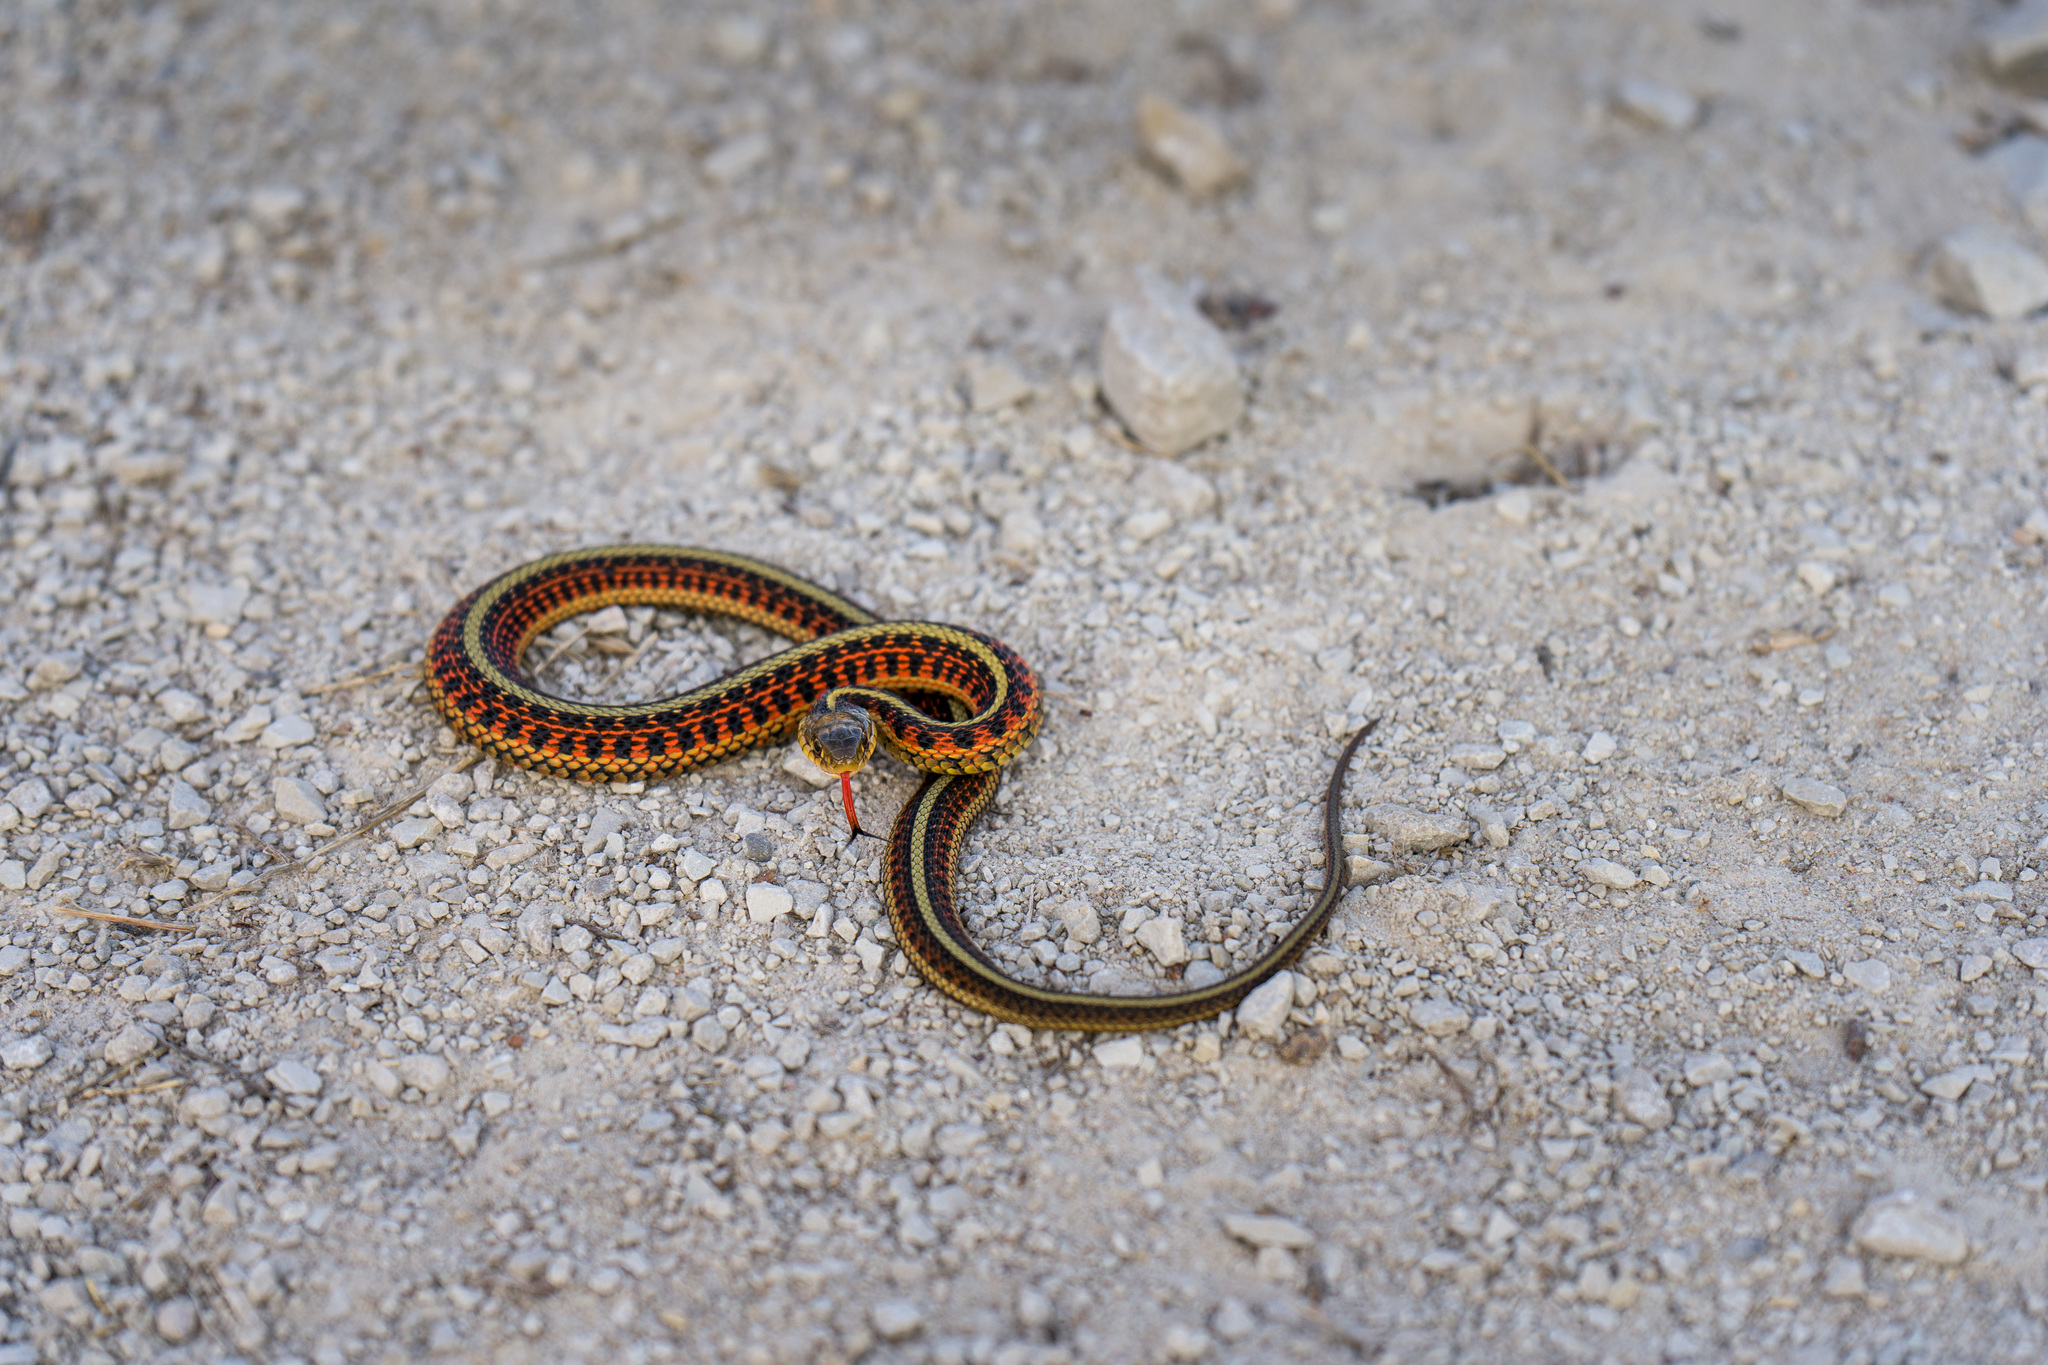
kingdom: Animalia
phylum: Chordata
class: Squamata
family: Colubridae
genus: Thamnophis
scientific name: Thamnophis sirtalis
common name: Common garter snake
